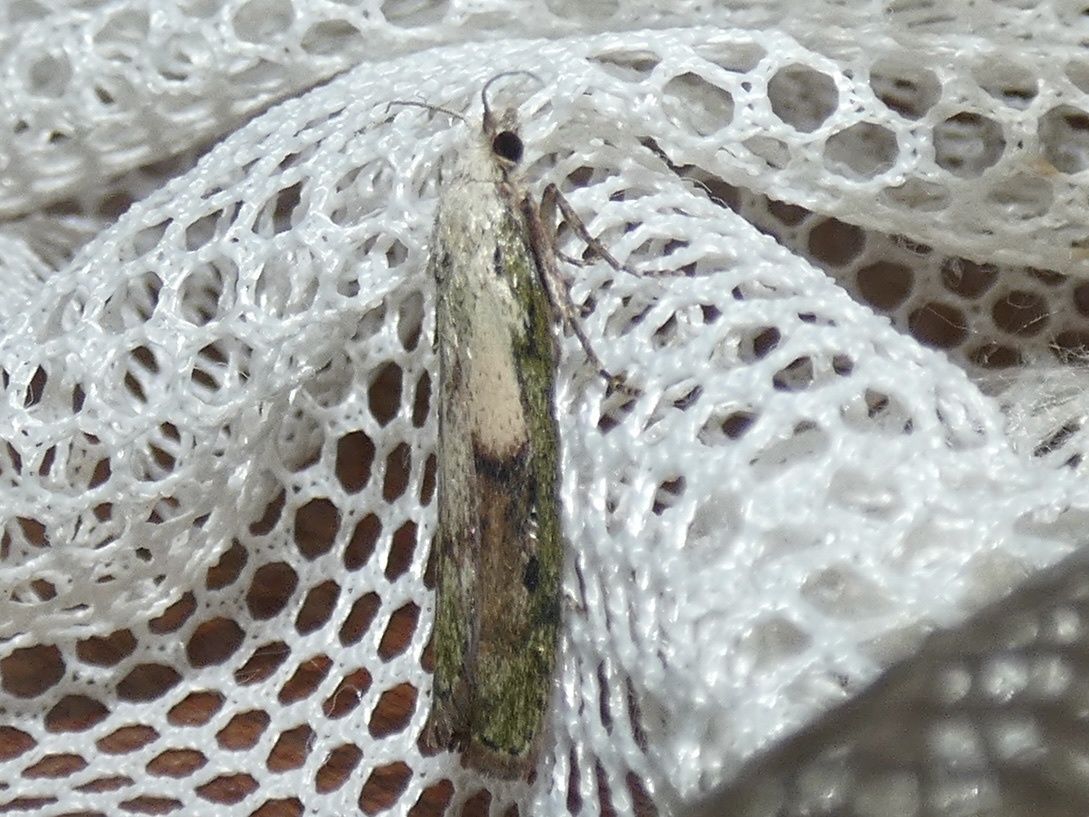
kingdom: Animalia
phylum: Arthropoda
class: Insecta
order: Lepidoptera
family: Pyralidae
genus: Aphomia
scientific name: Aphomia sociella
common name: Bee moth
